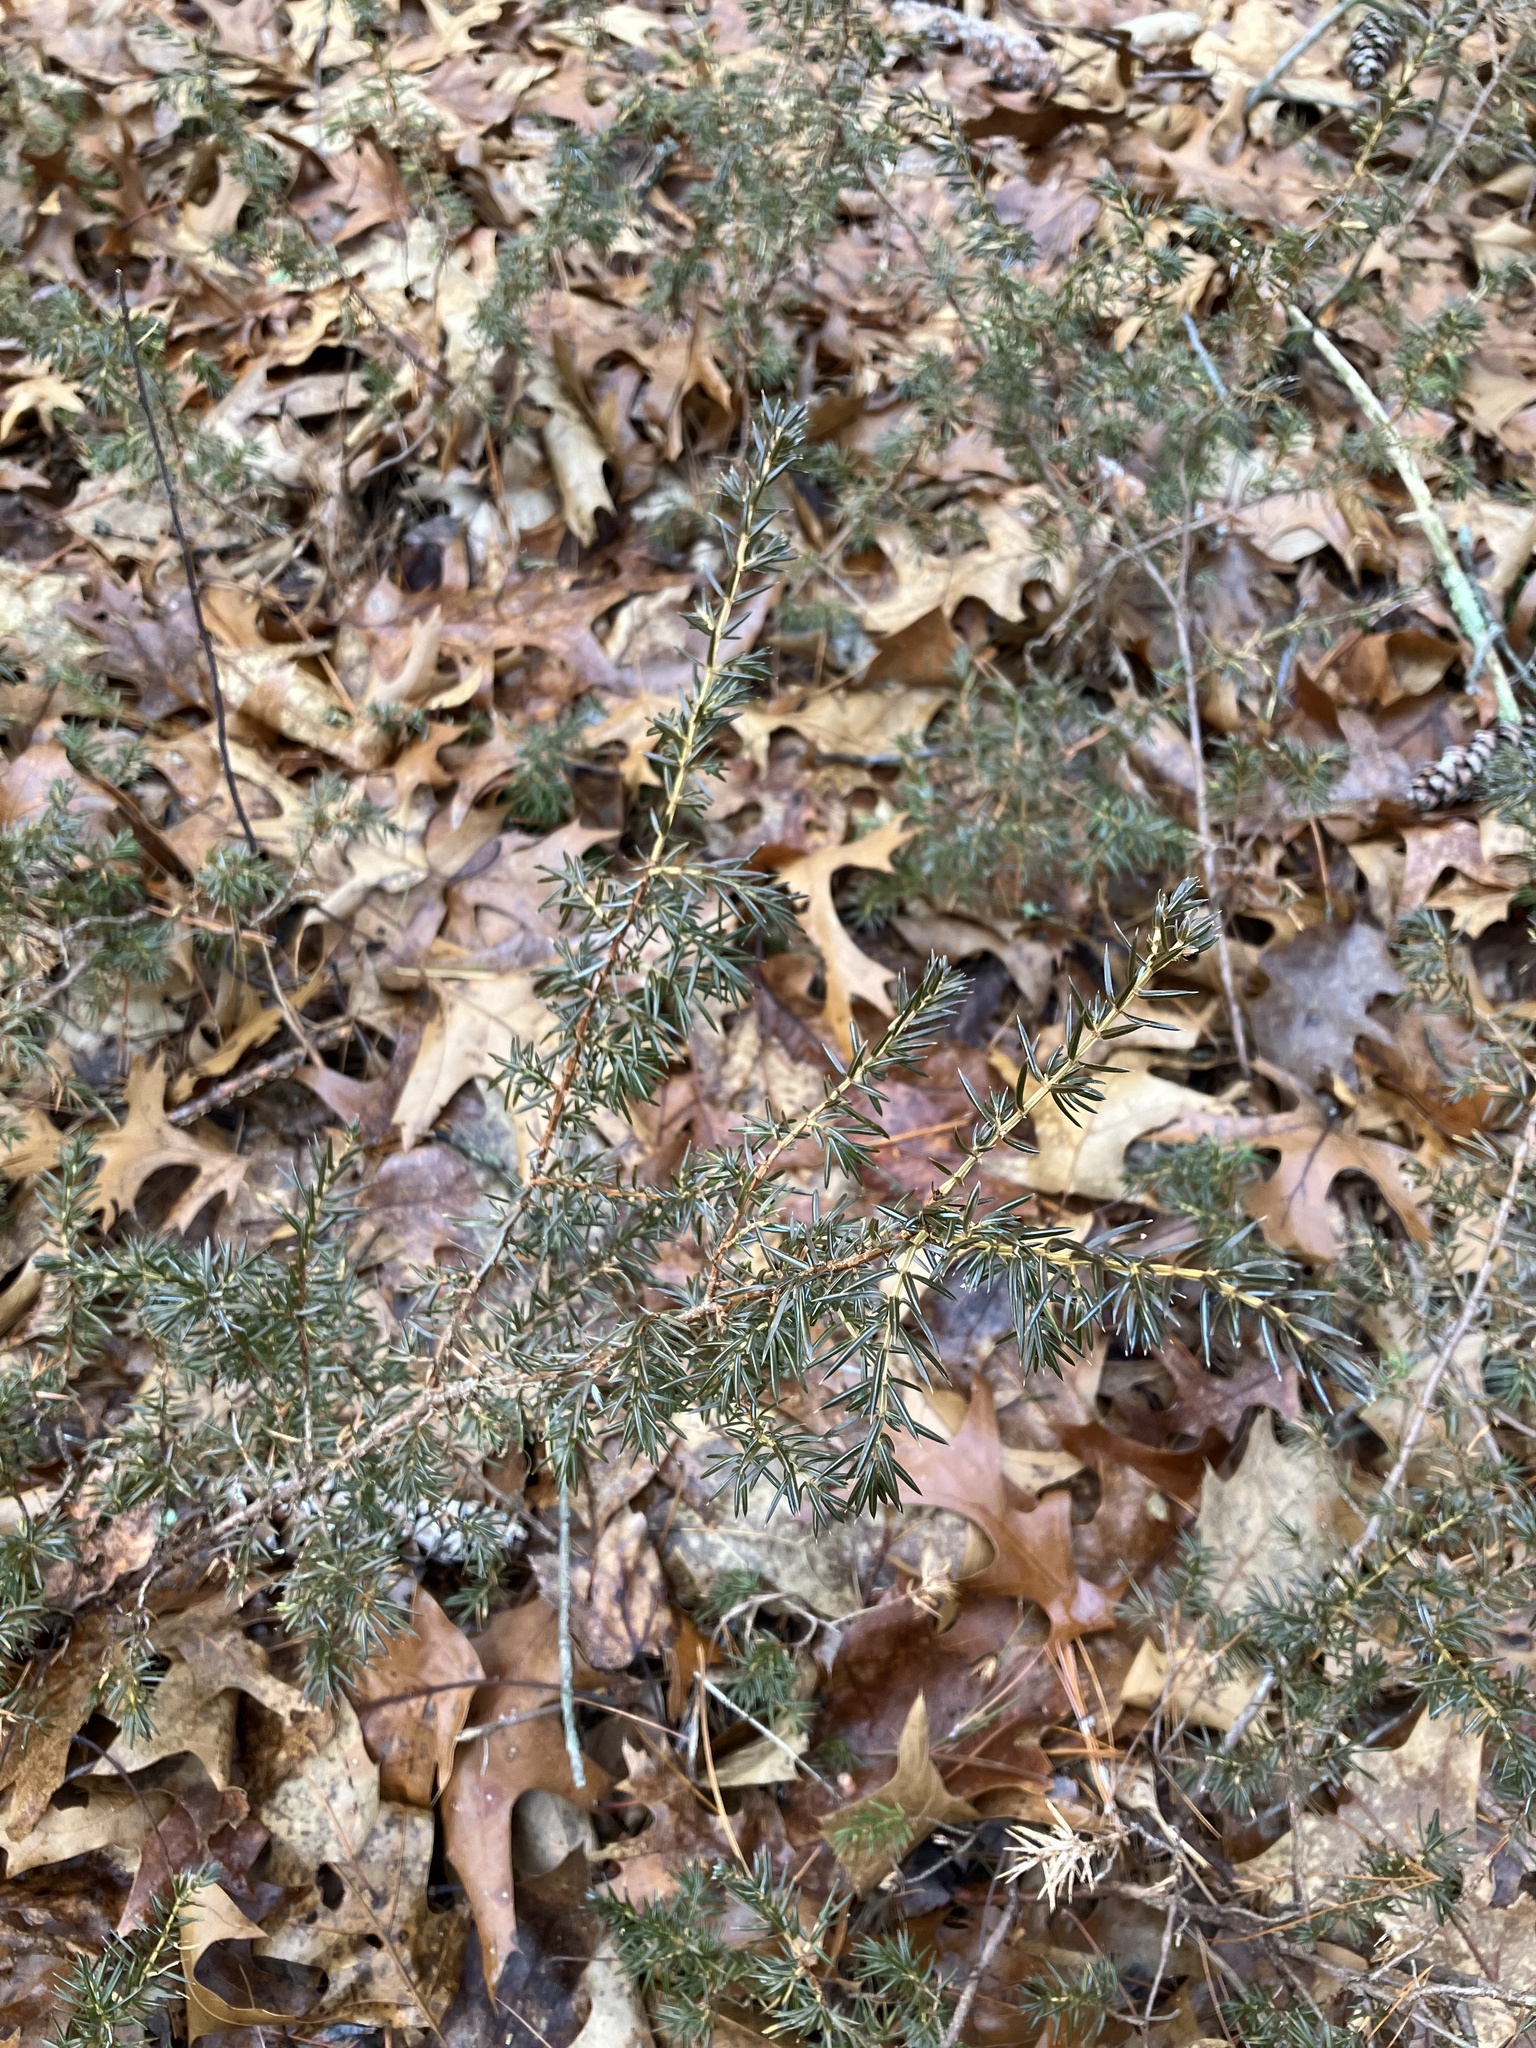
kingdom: Plantae
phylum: Tracheophyta
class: Pinopsida
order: Pinales
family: Cupressaceae
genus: Juniperus
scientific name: Juniperus communis
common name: Common juniper
